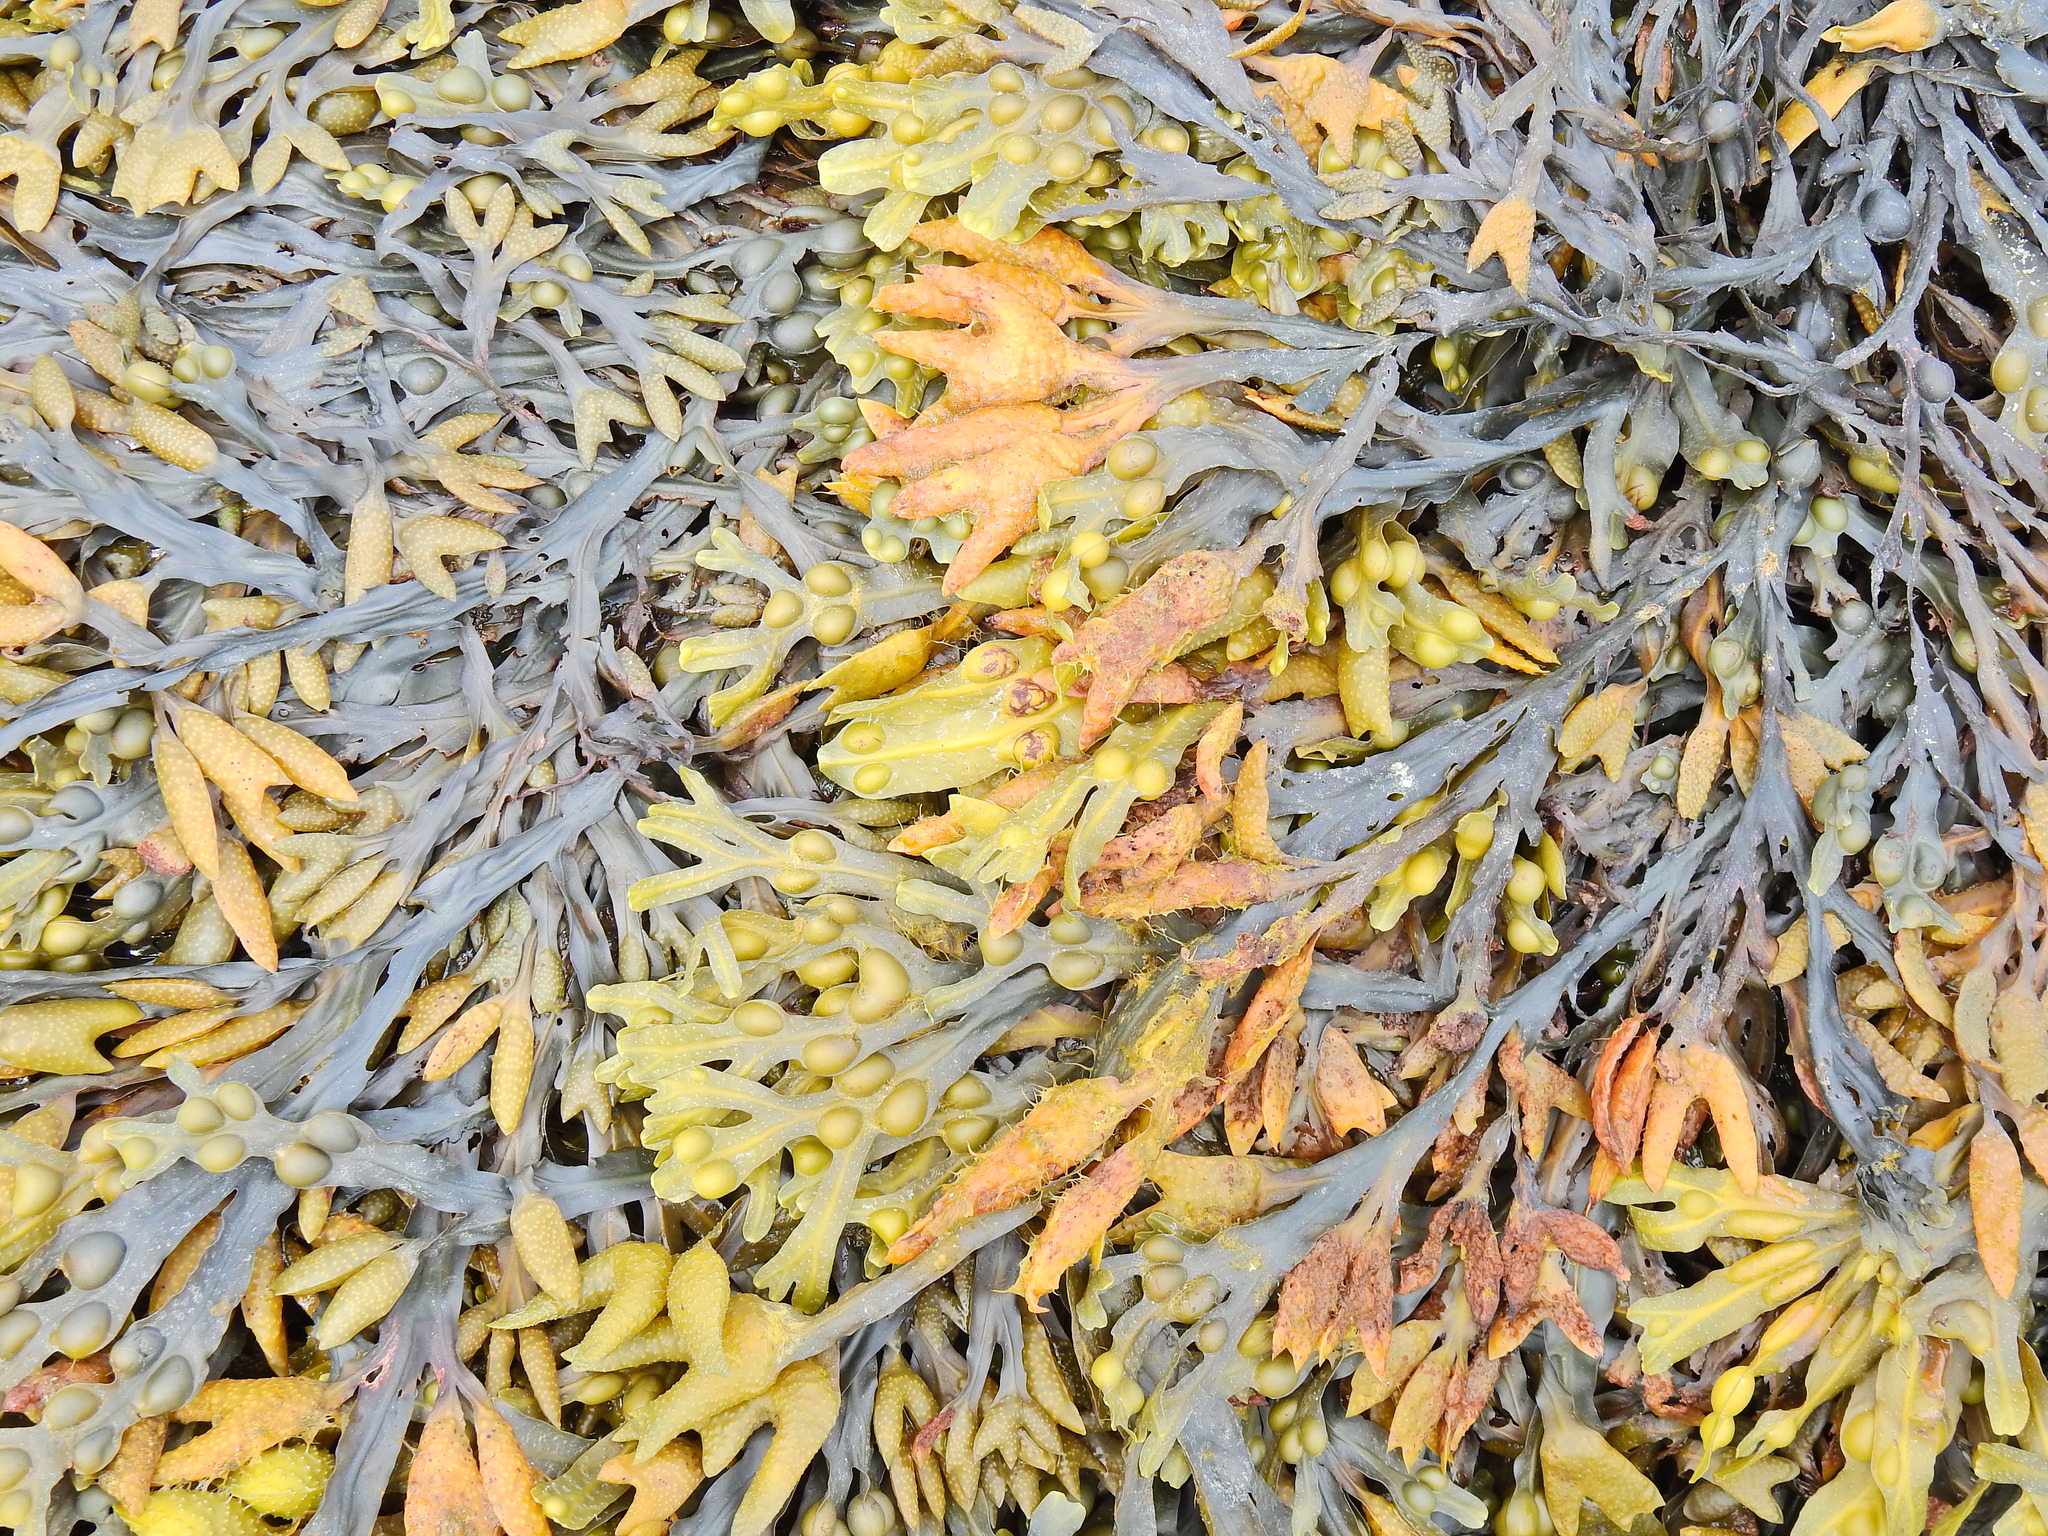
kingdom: Chromista
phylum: Ochrophyta
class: Phaeophyceae
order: Fucales
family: Fucaceae
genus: Fucus
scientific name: Fucus vesiculosus
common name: Bladder wrack
